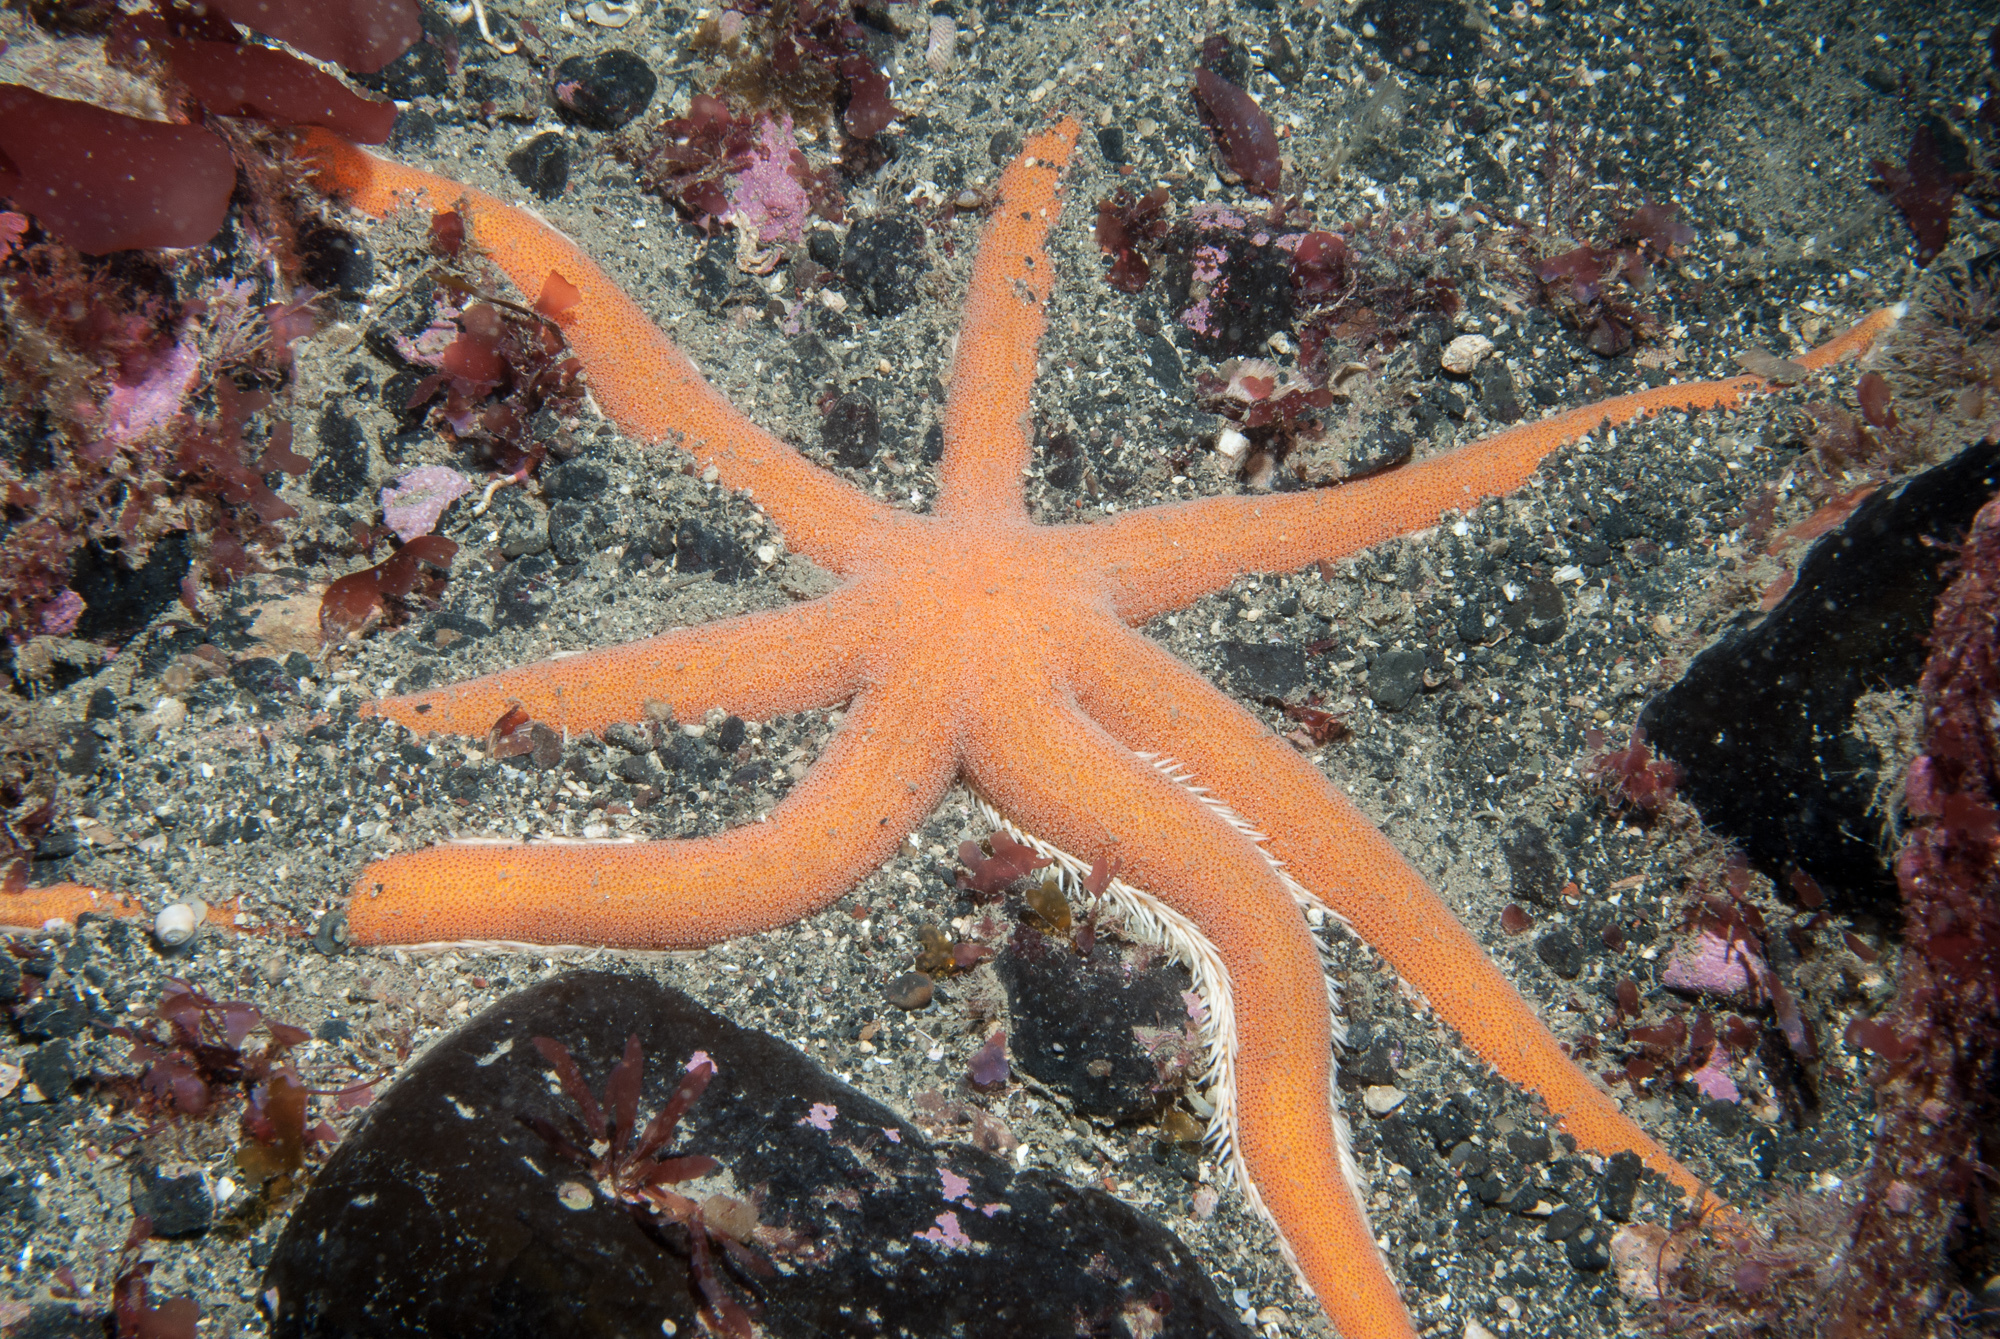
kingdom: Animalia
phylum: Echinodermata
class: Asteroidea
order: Paxillosida
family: Luidiidae
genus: Luidia
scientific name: Luidia ciliaris
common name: Seven-armed starfish
